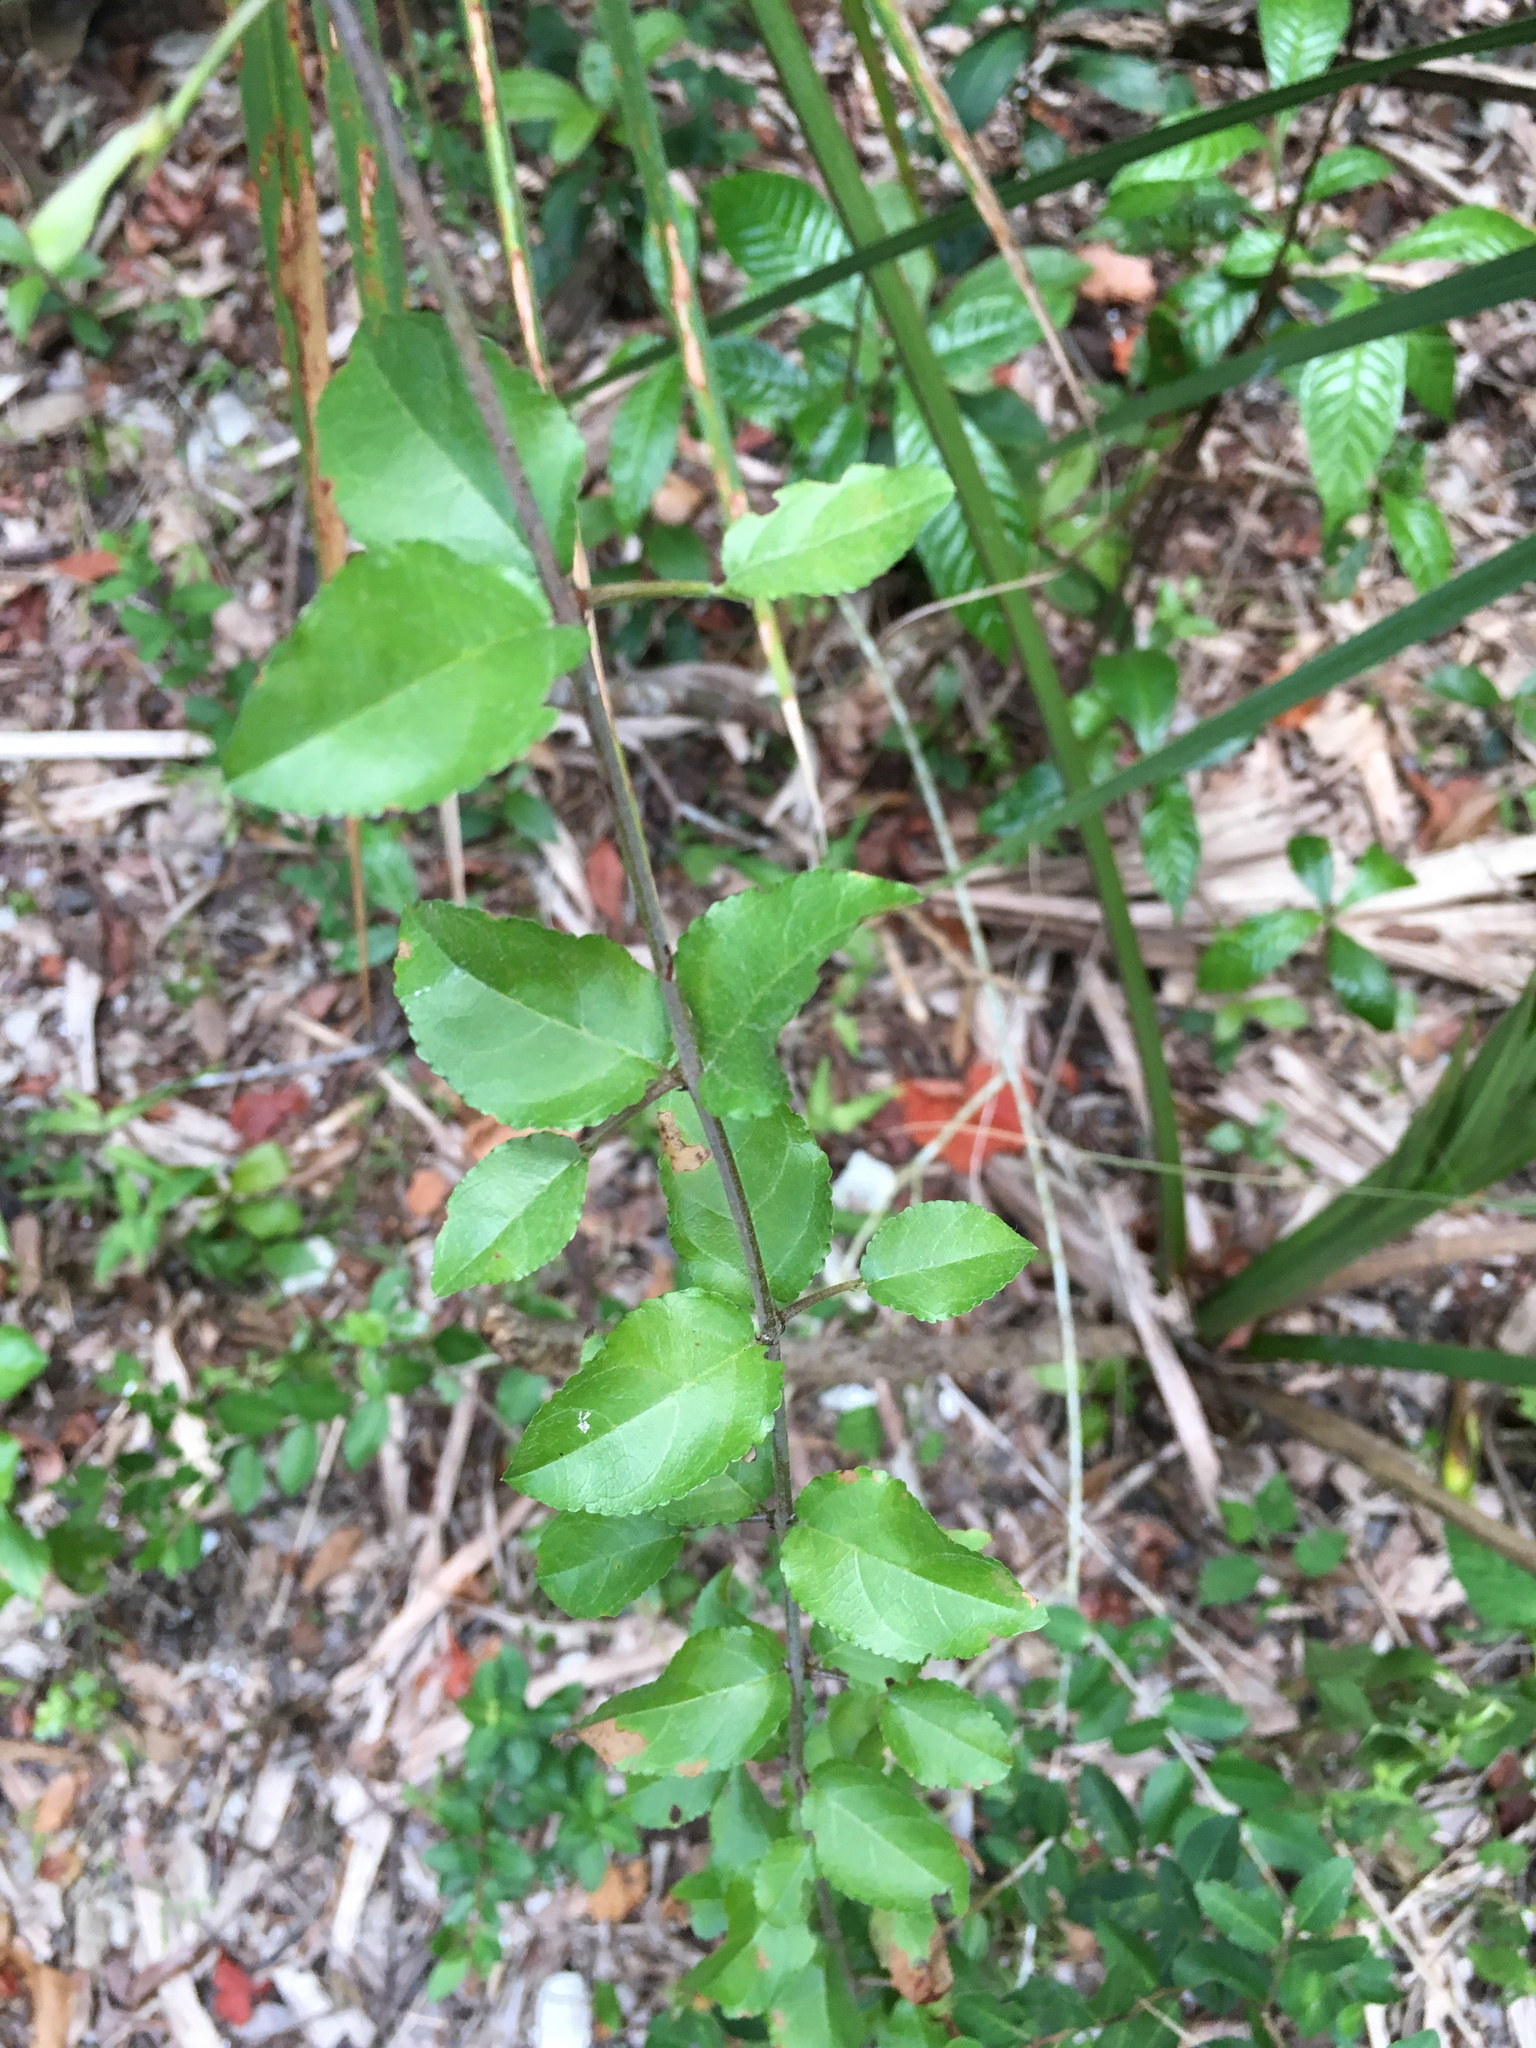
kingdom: Plantae
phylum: Tracheophyta
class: Magnoliopsida
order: Rosales
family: Rhamnaceae
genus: Sageretia
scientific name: Sageretia minutiflora
